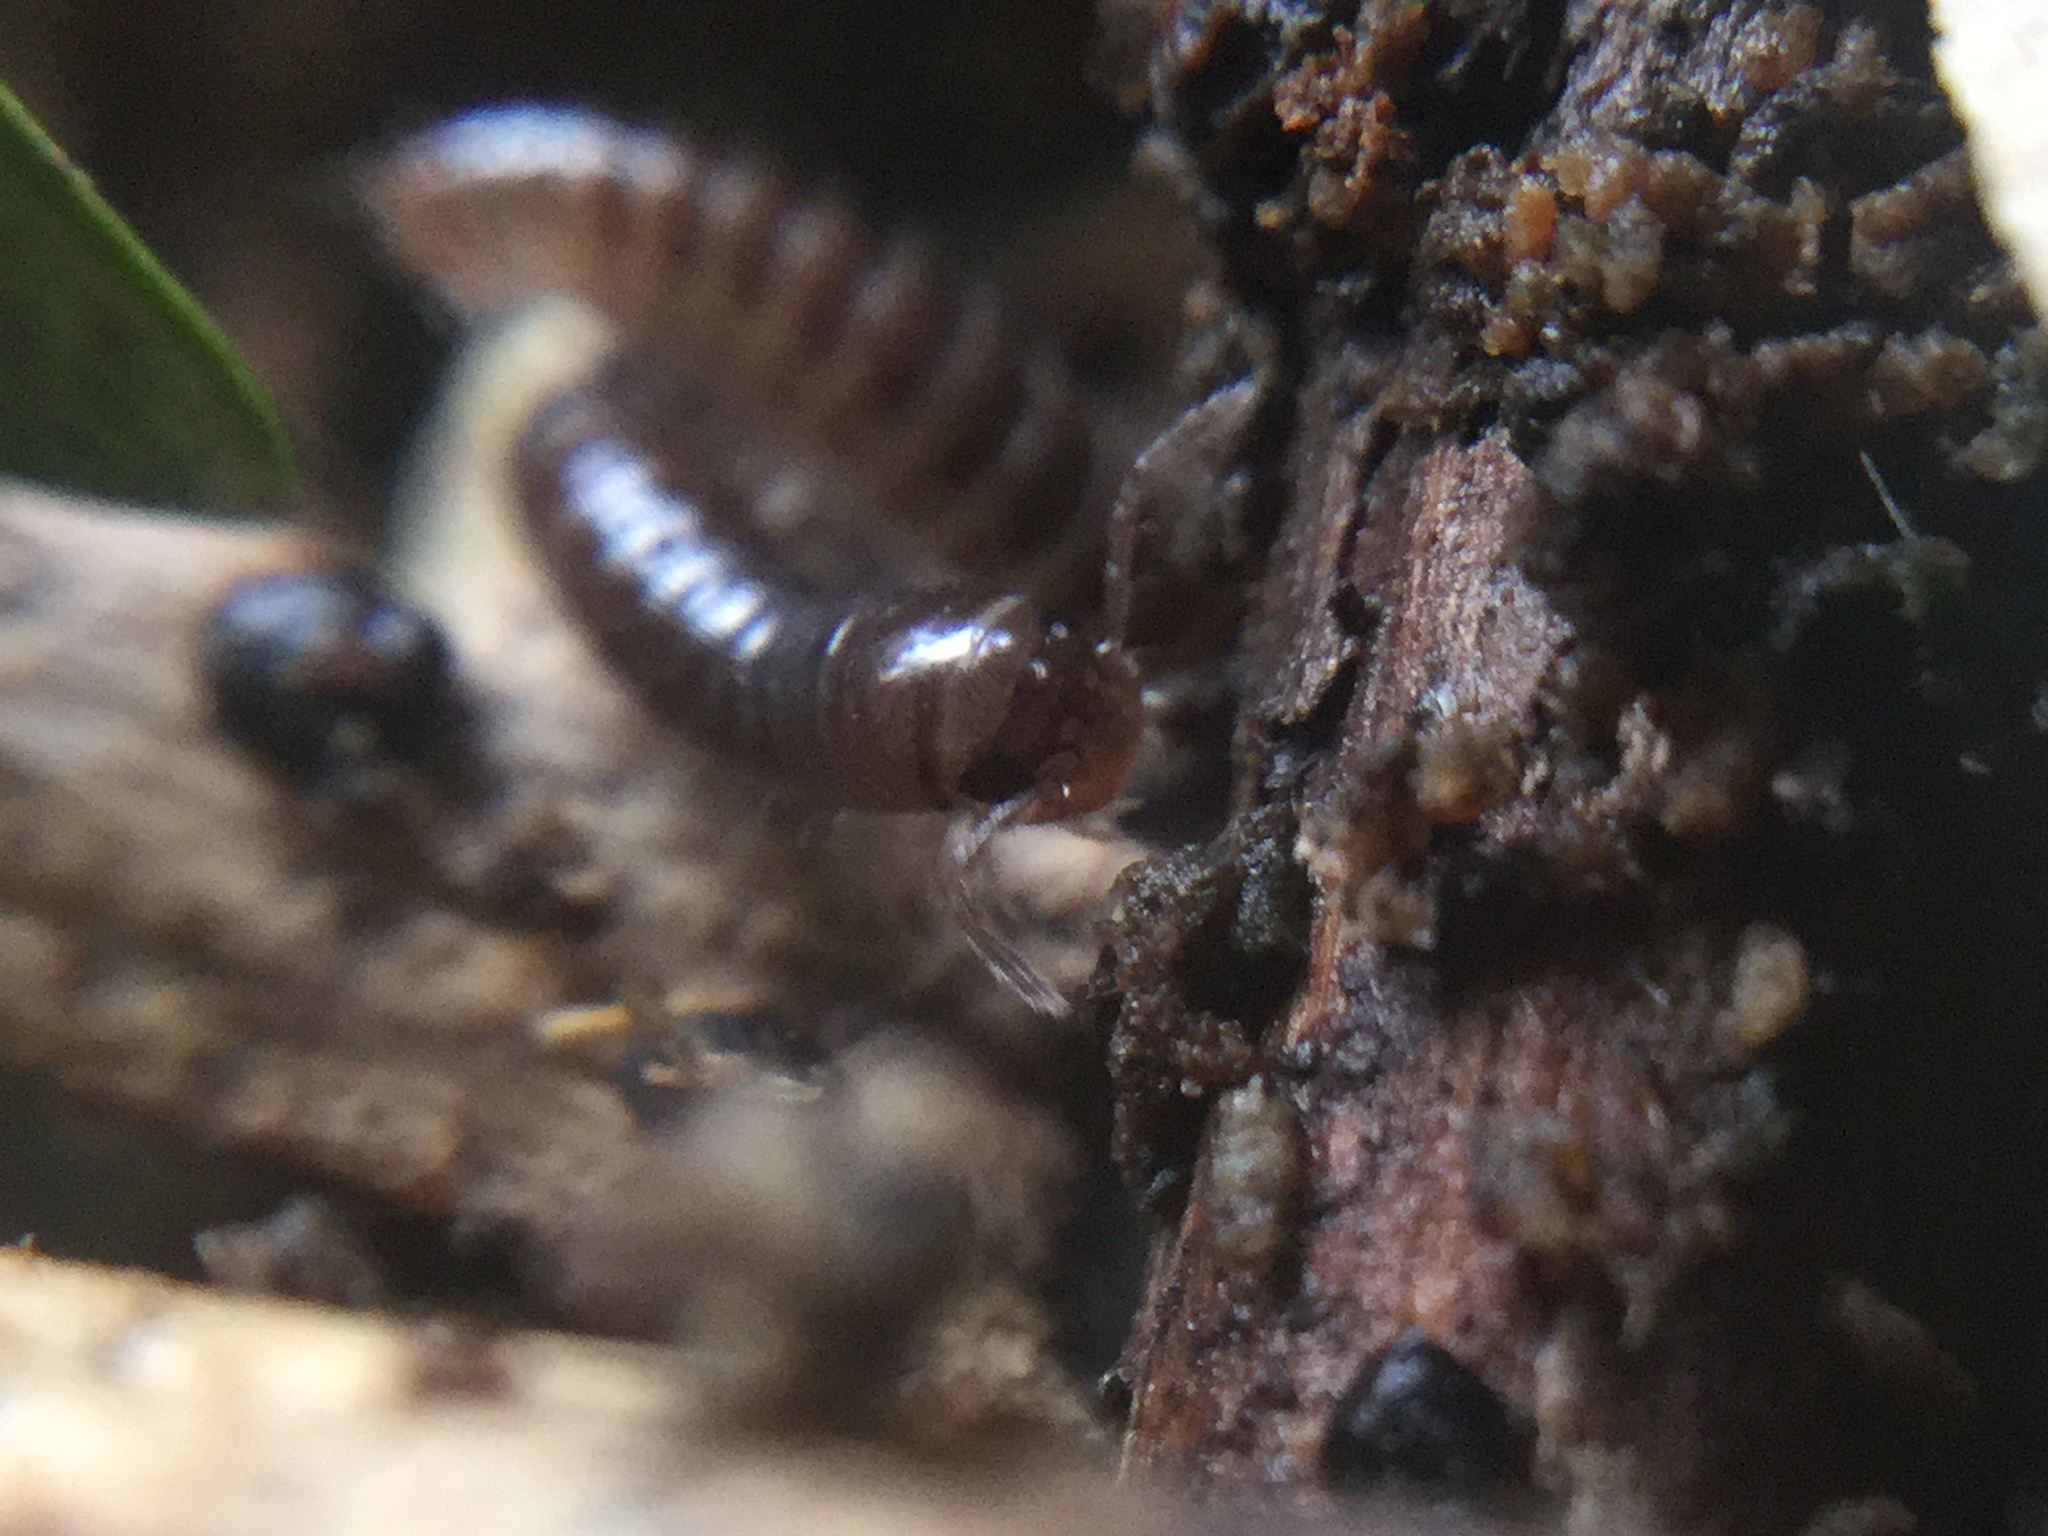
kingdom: Animalia
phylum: Arthropoda
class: Diplopoda
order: Julida
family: Julidae
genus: Ophyiulus
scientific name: Ophyiulus pilosus
